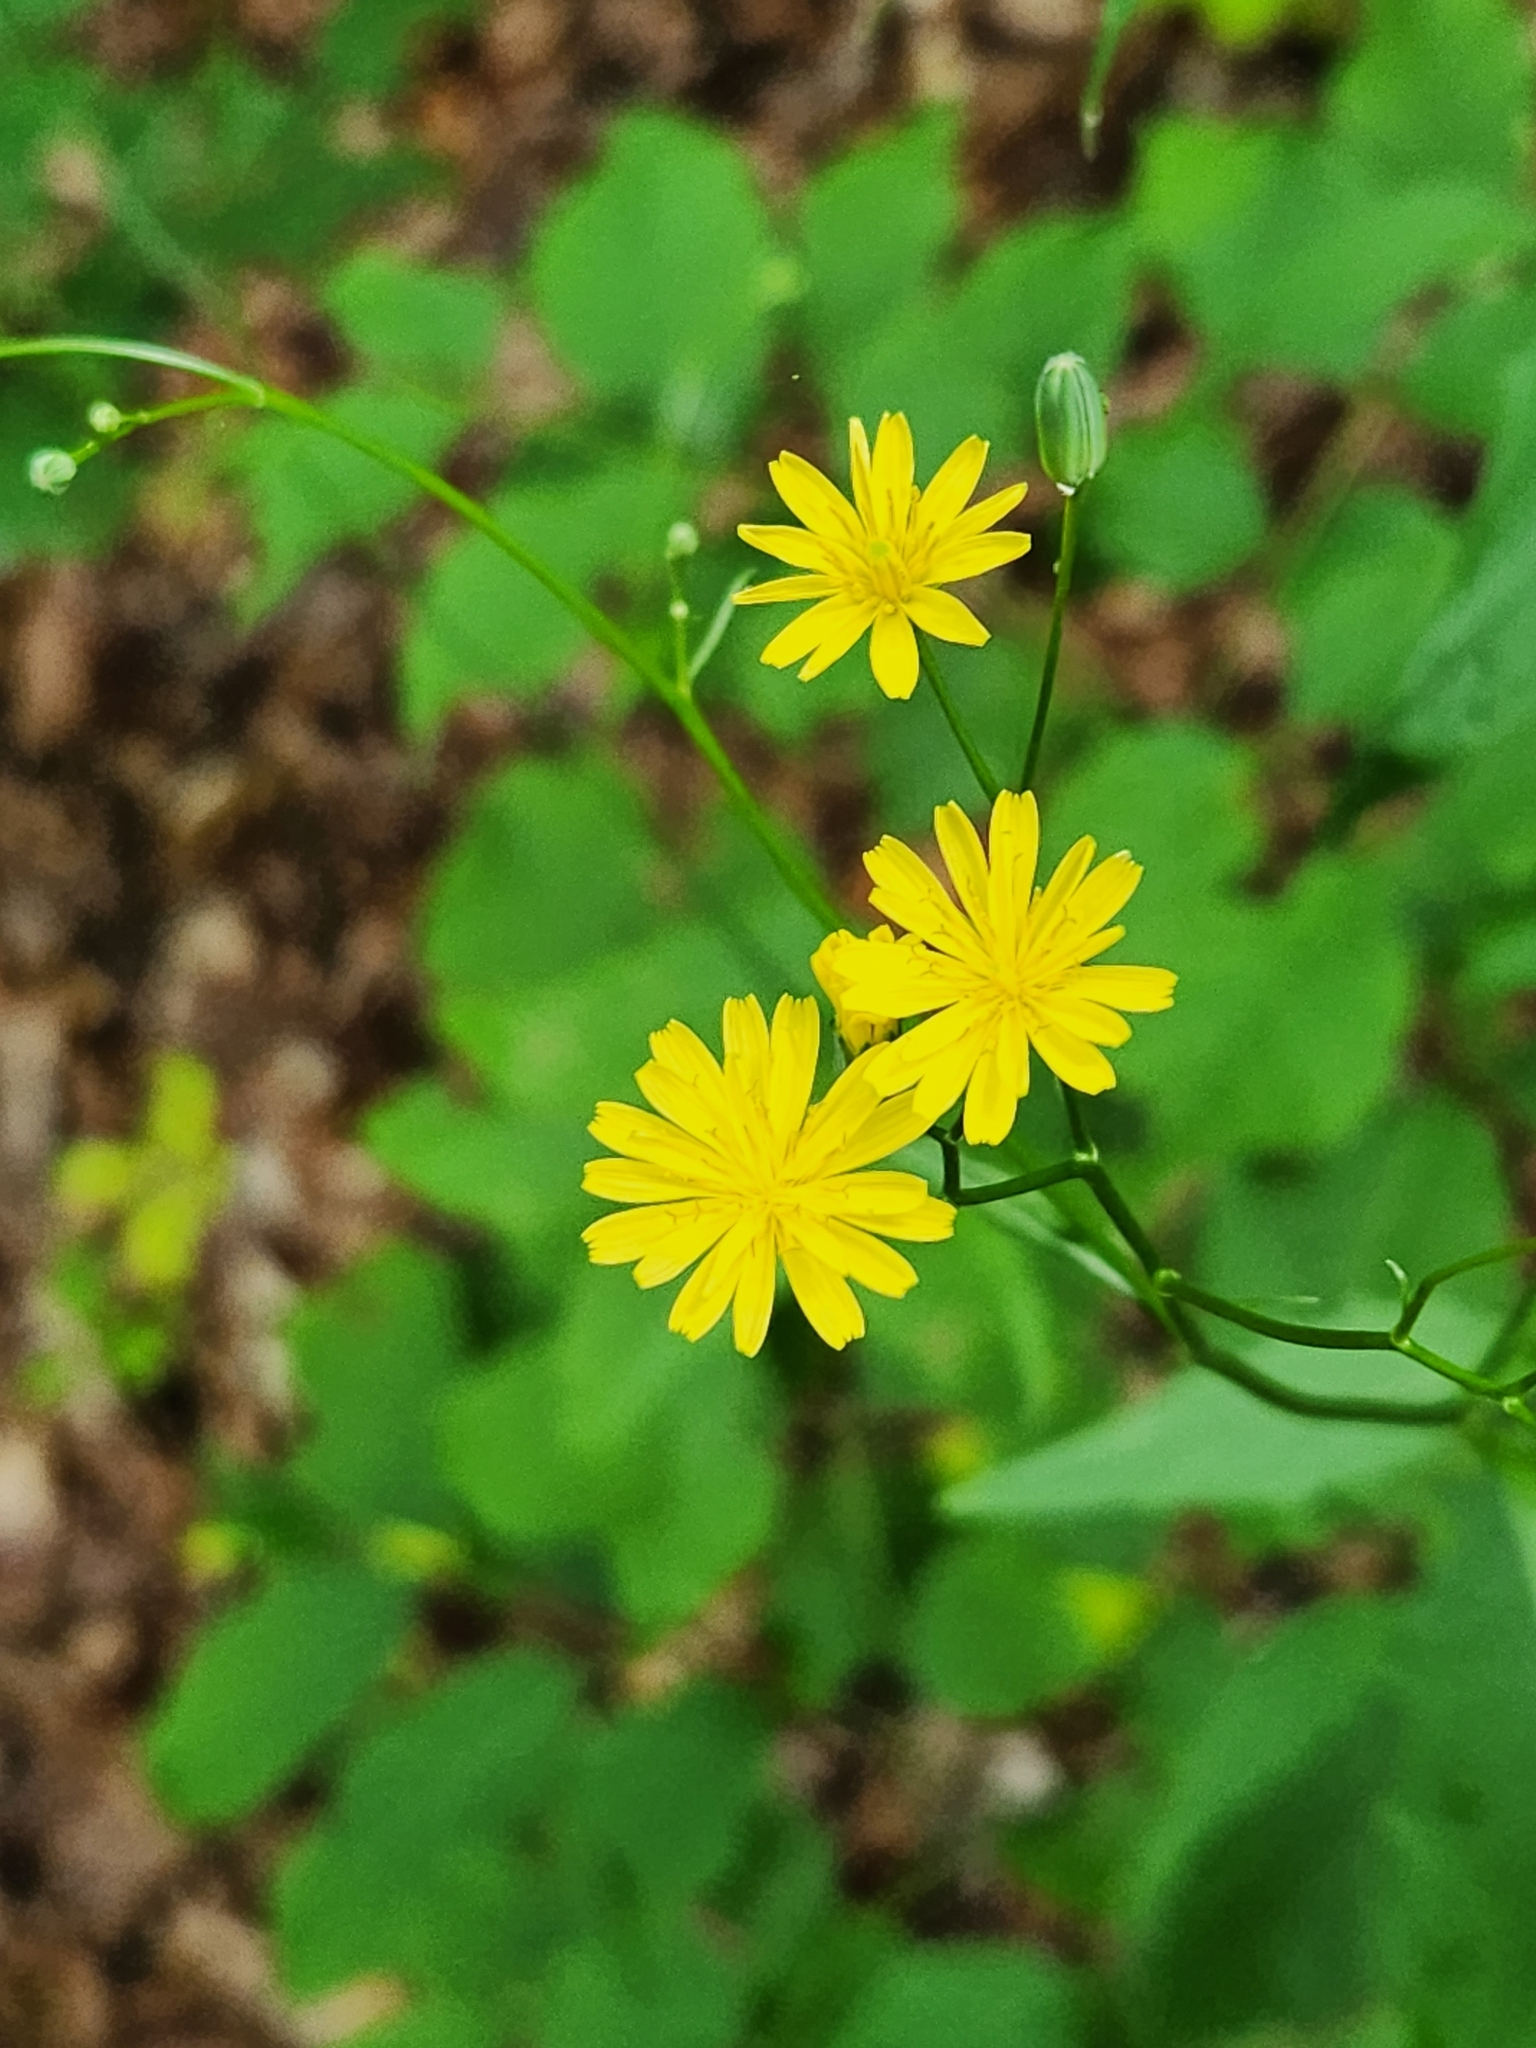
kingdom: Plantae
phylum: Tracheophyta
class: Magnoliopsida
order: Asterales
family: Asteraceae
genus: Lapsana
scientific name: Lapsana communis
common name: Nipplewort
